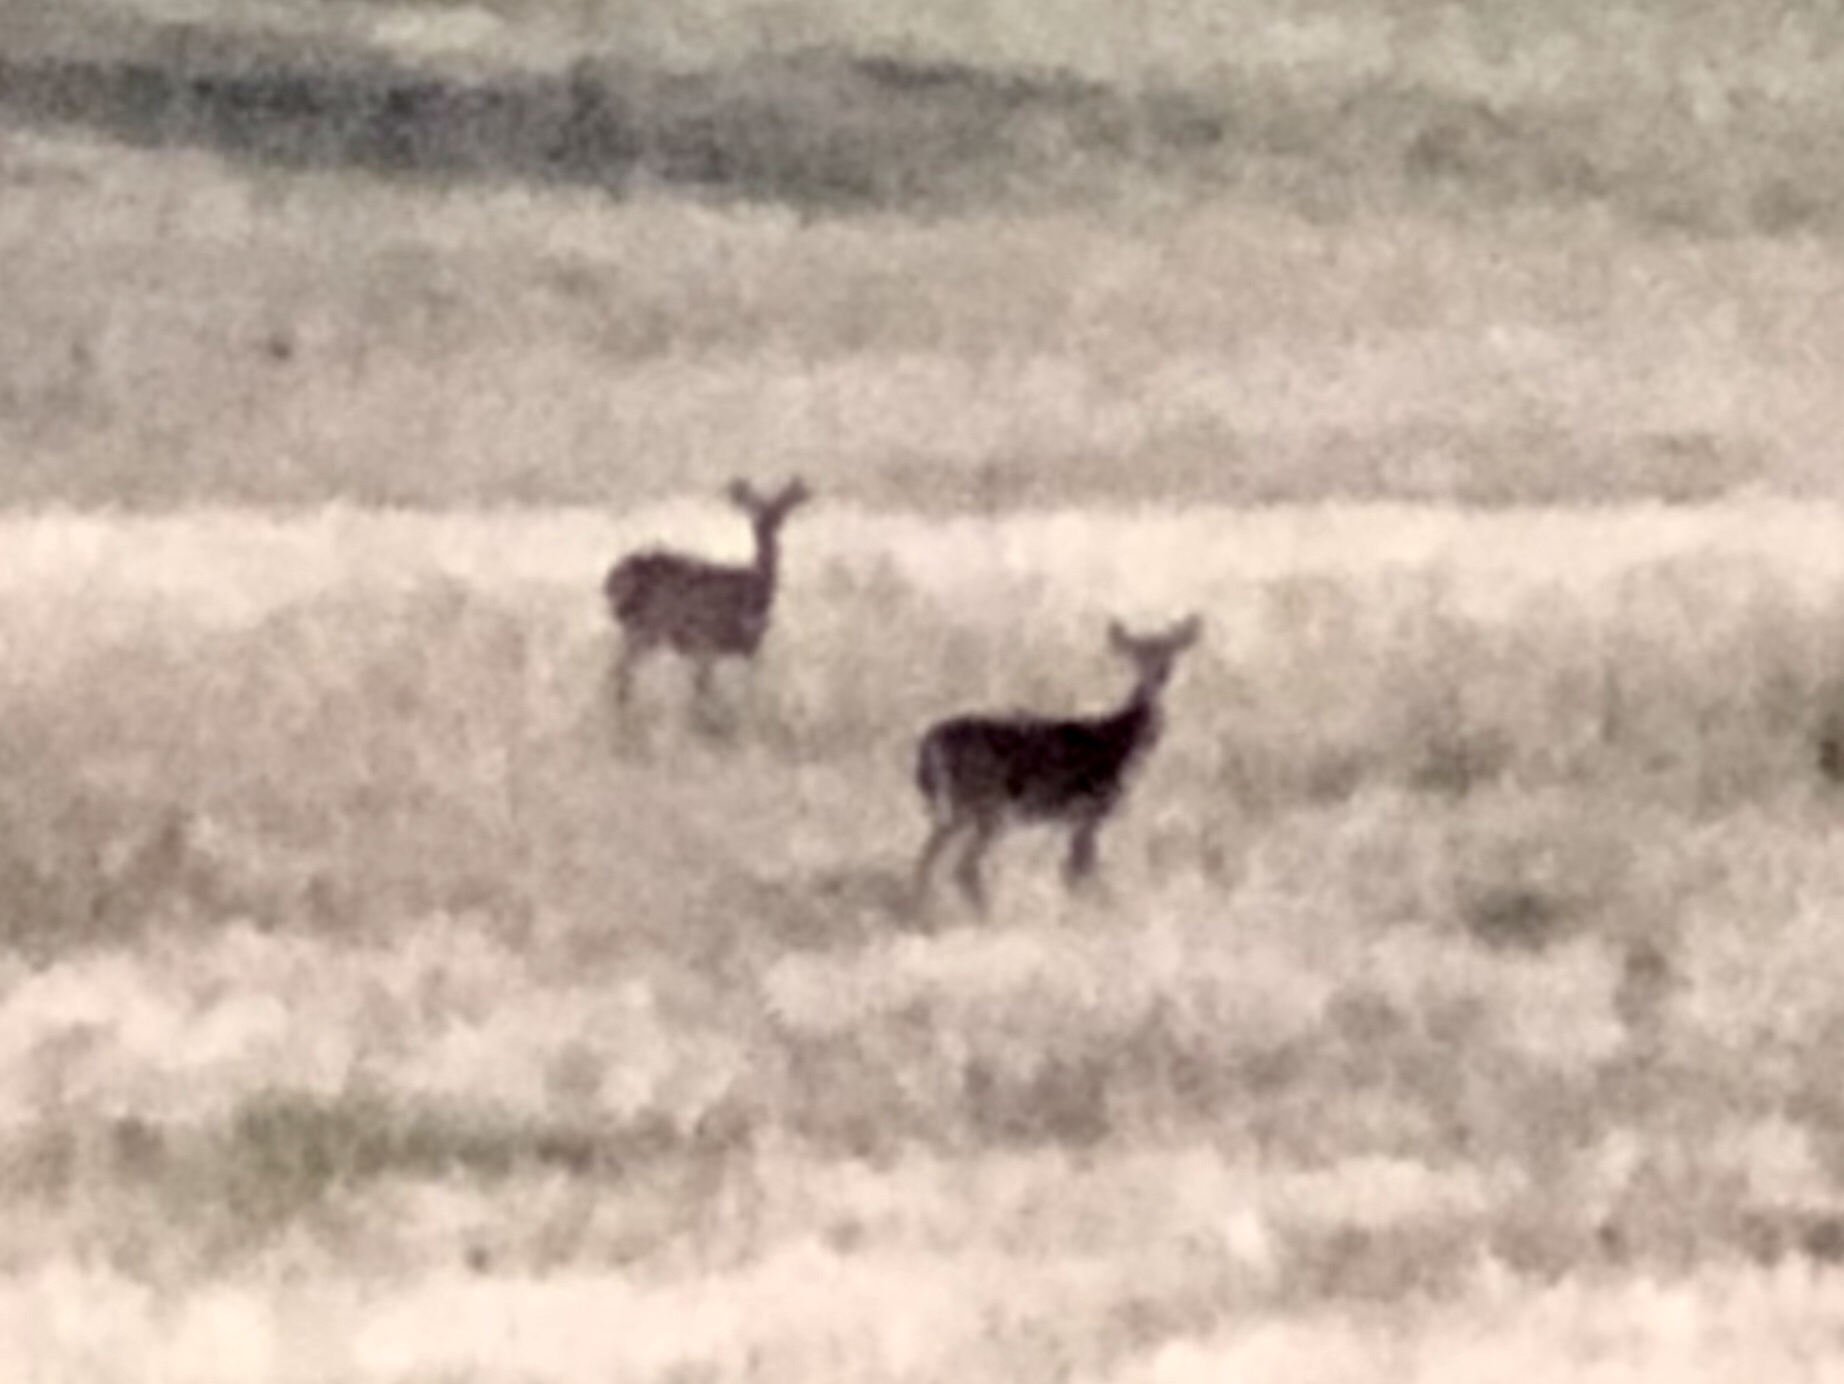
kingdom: Animalia
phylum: Chordata
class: Mammalia
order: Artiodactyla
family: Cervidae
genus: Odocoileus
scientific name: Odocoileus virginianus
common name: White-tailed deer
